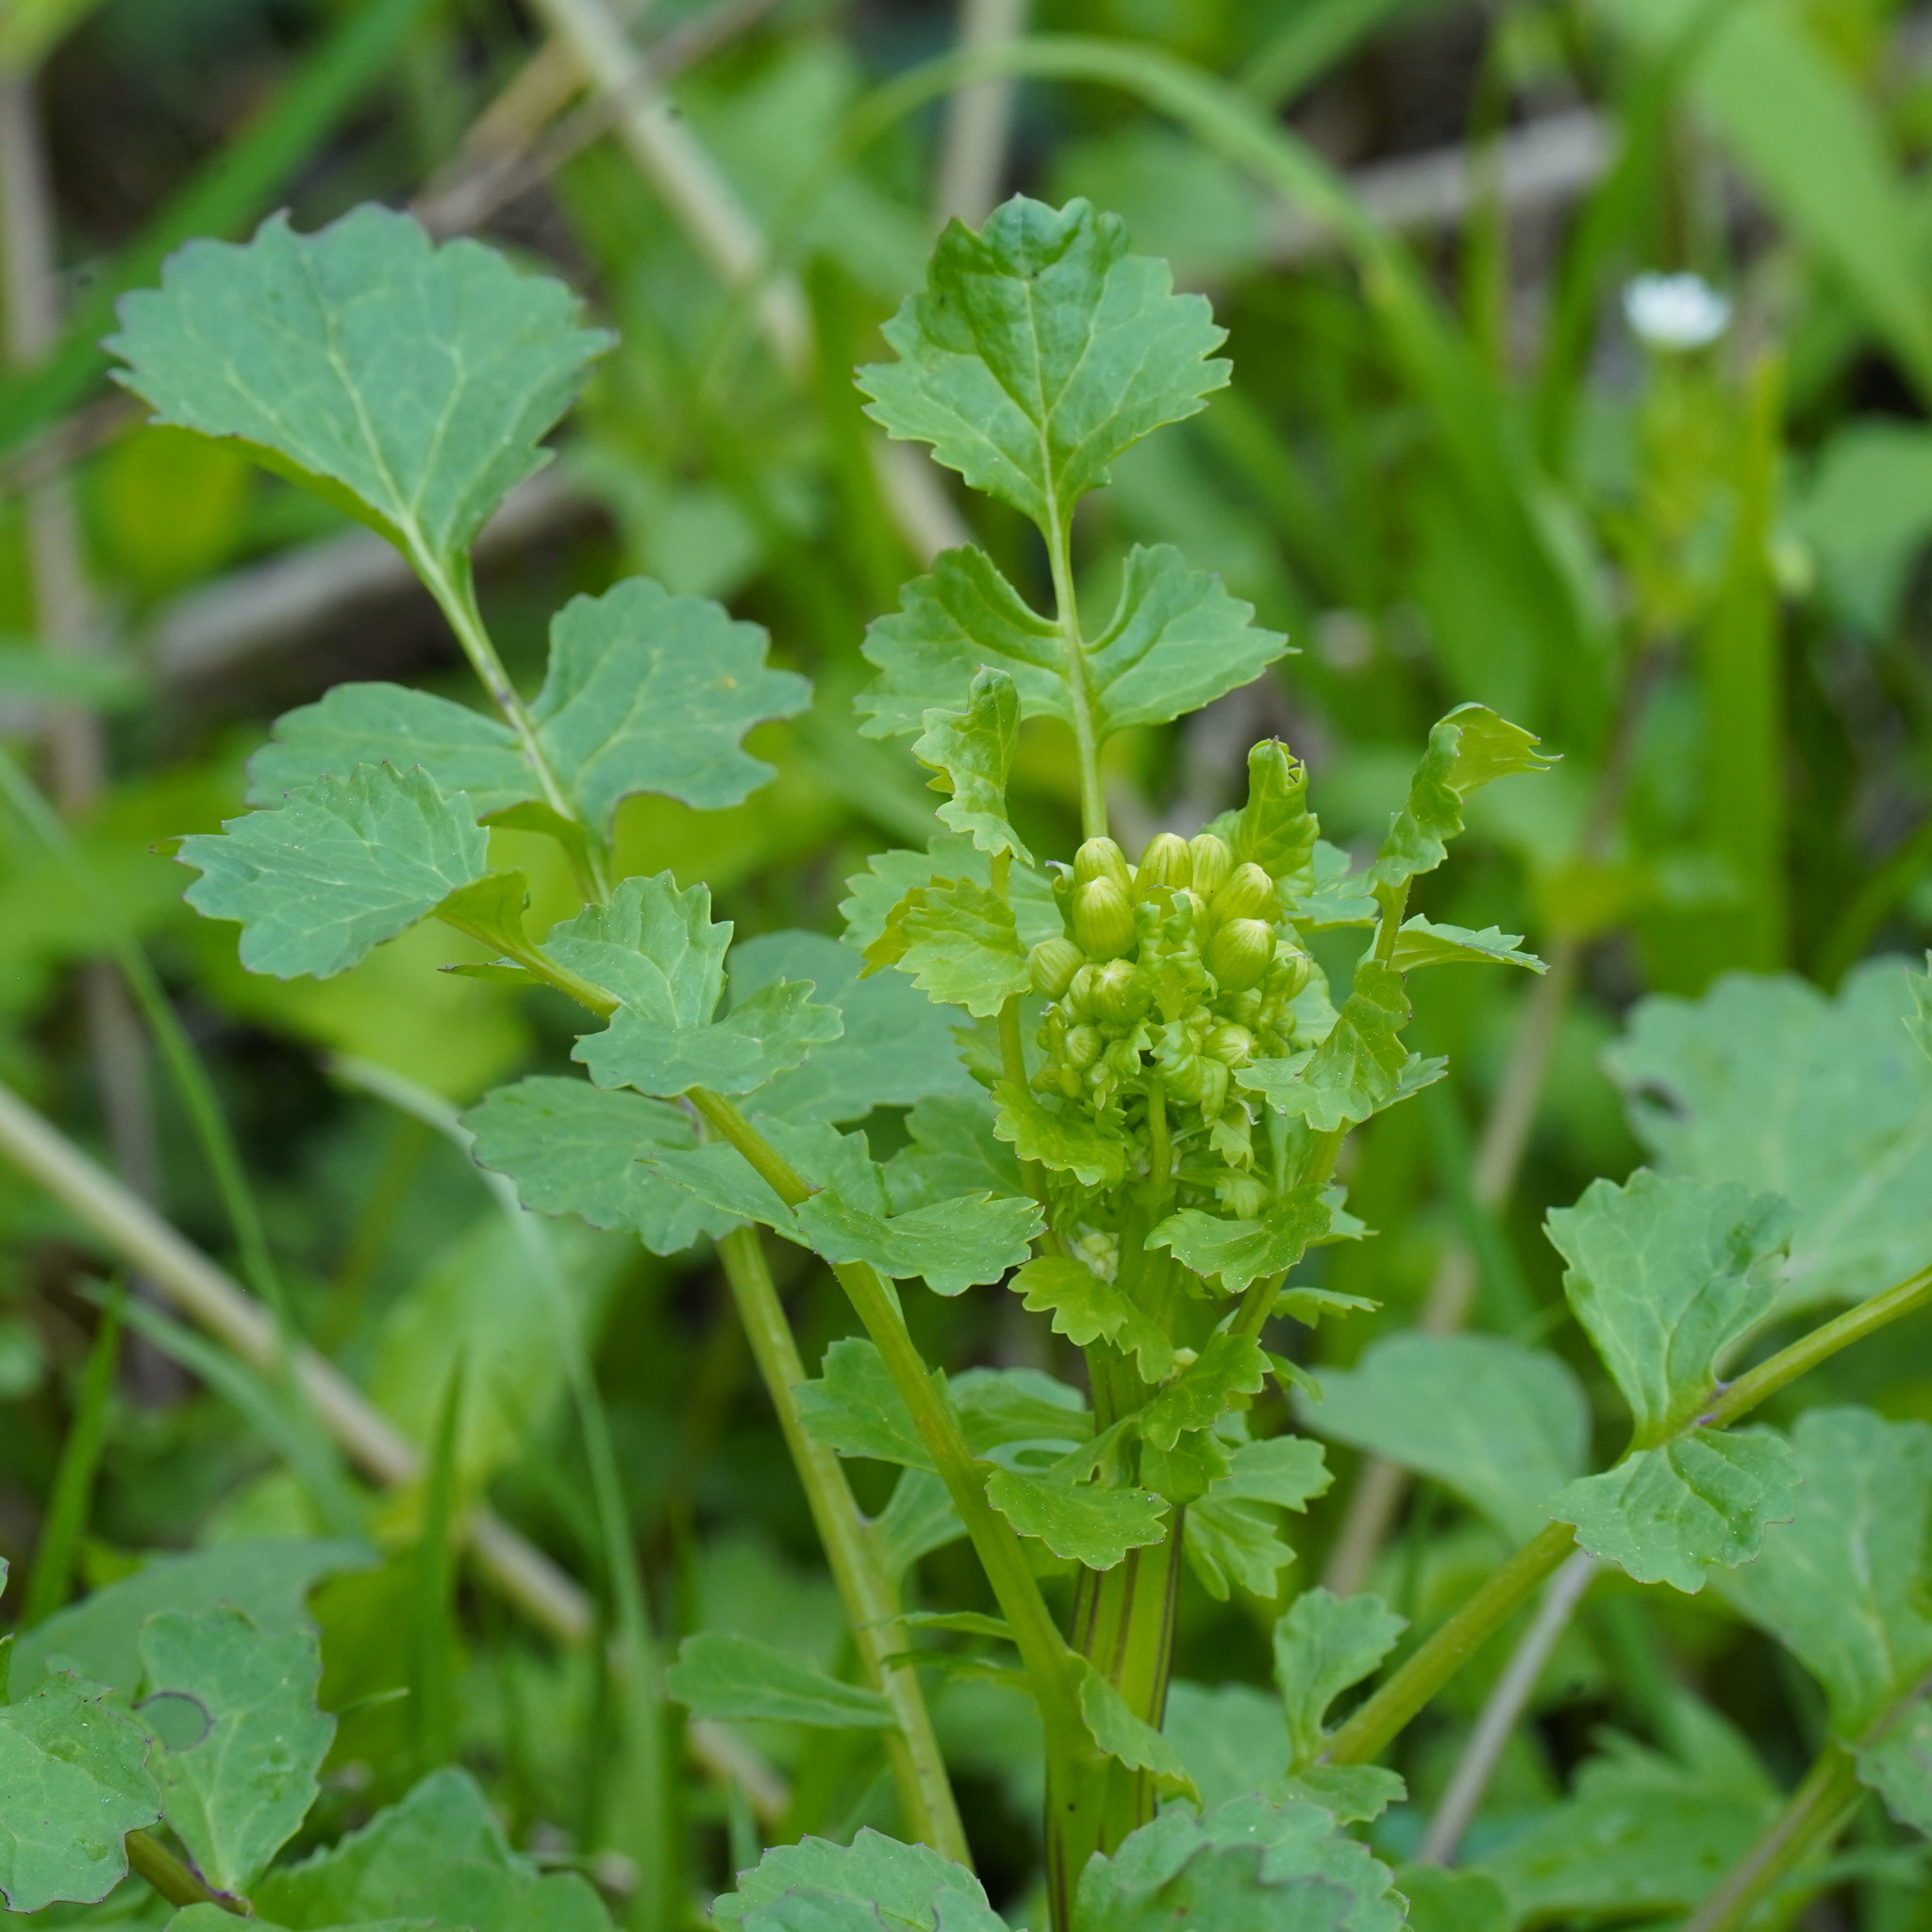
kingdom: Plantae
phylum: Tracheophyta
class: Magnoliopsida
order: Asterales
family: Asteraceae
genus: Packera
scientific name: Packera glabella
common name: Butterweed
